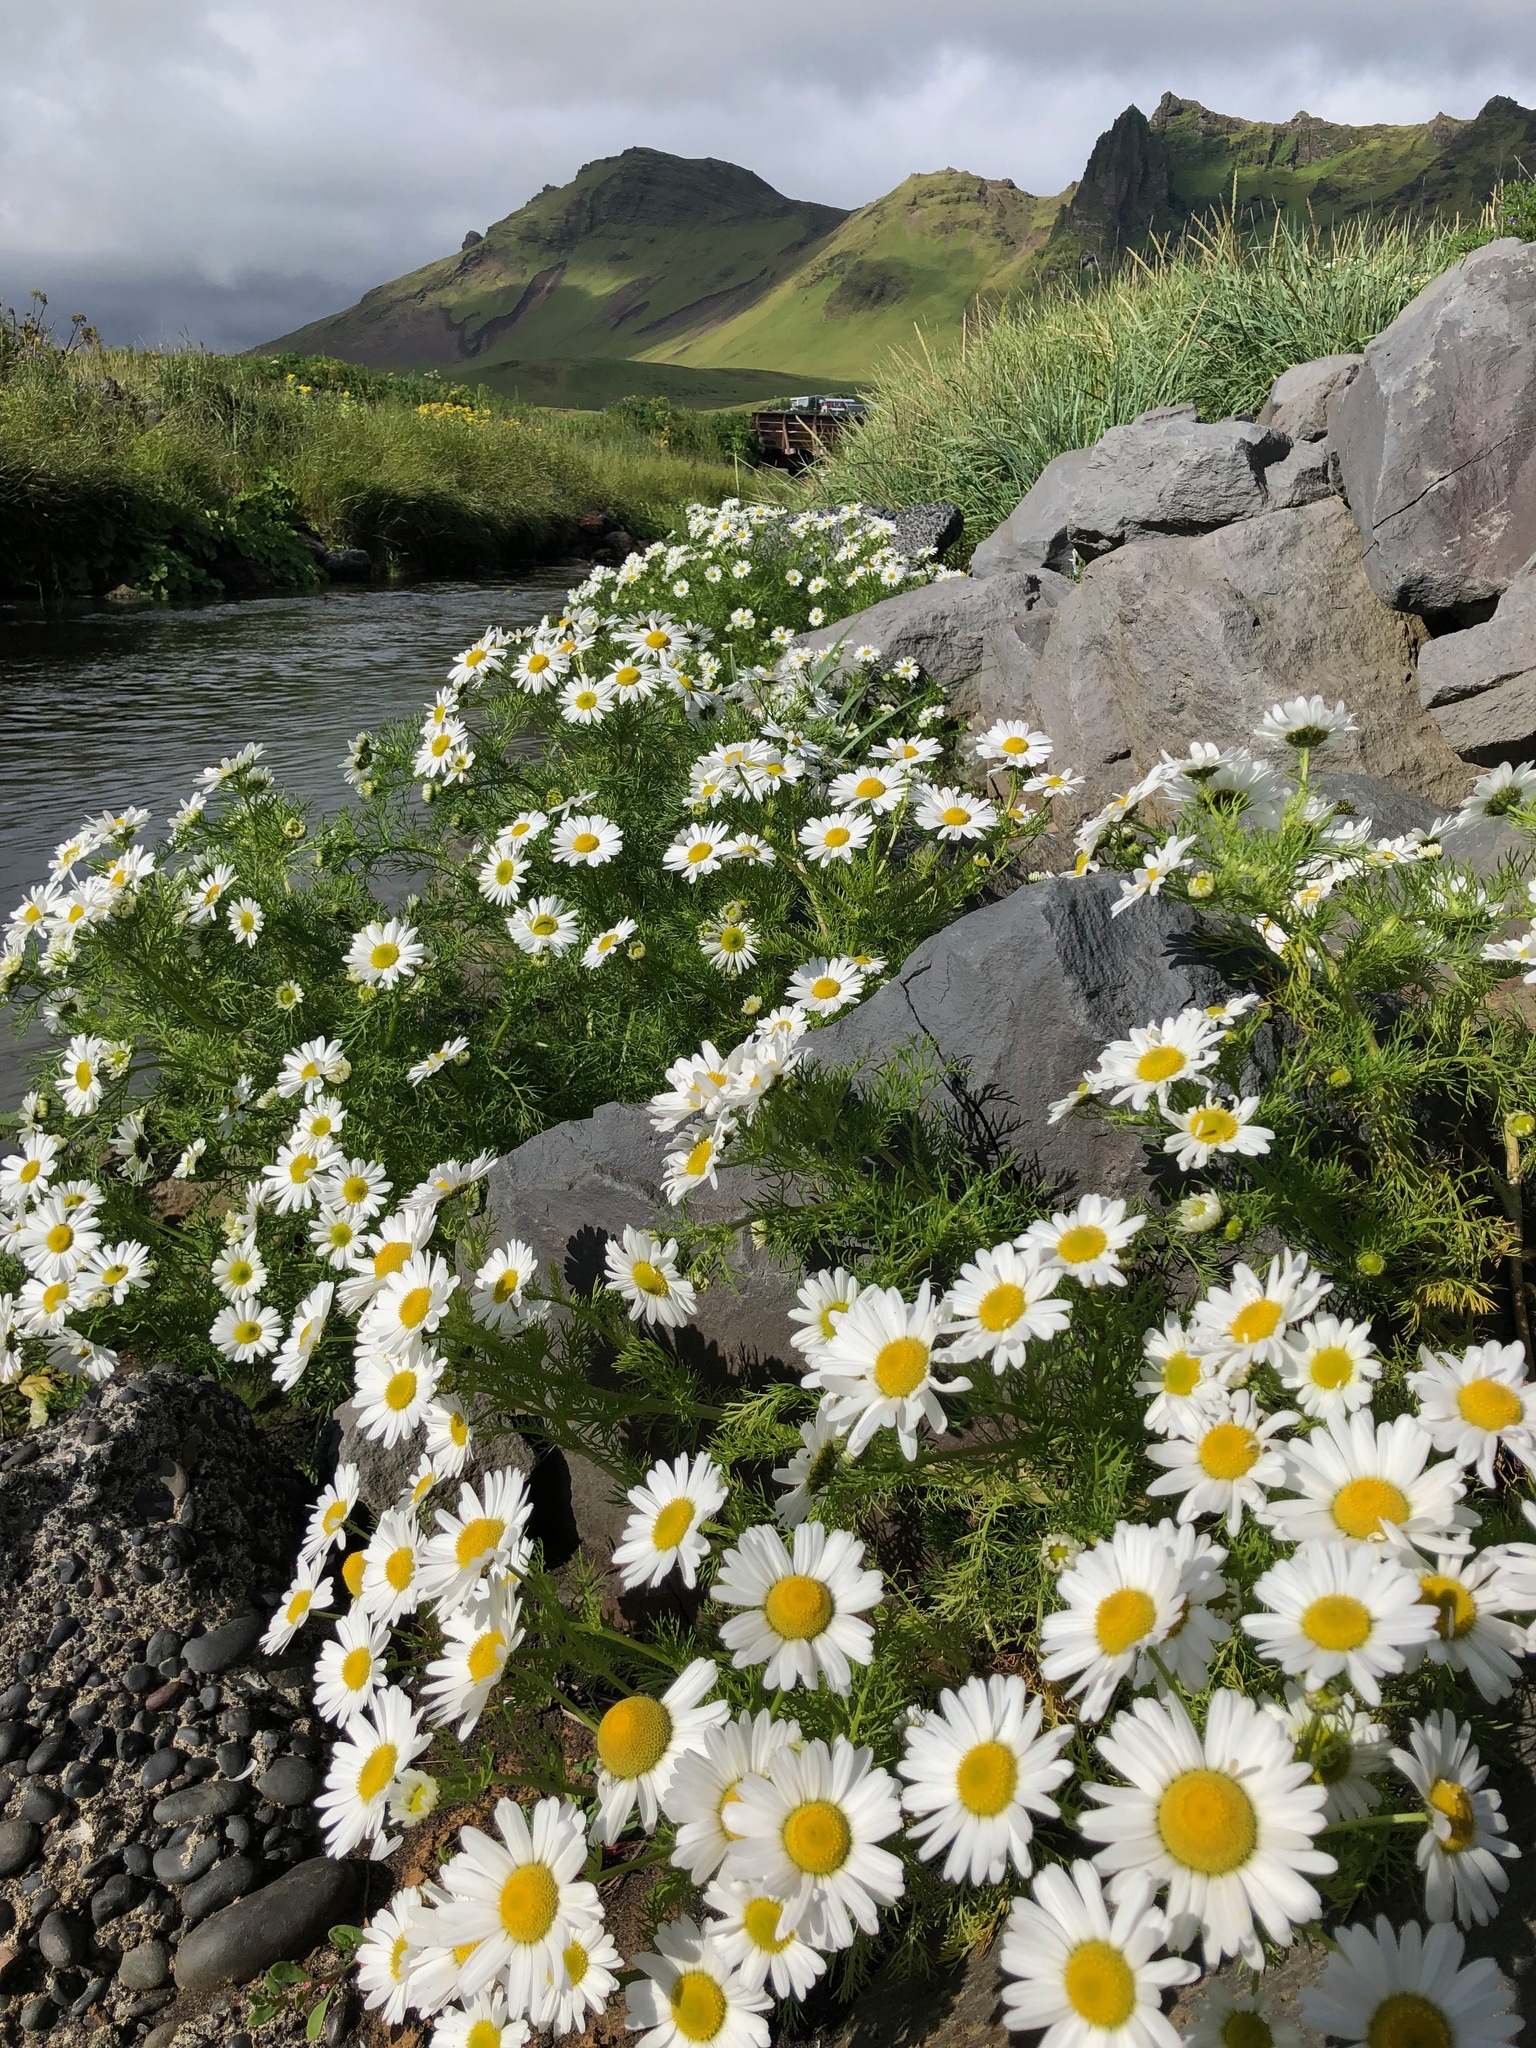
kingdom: Plantae
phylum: Tracheophyta
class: Magnoliopsida
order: Asterales
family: Asteraceae
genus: Tripleurospermum
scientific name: Tripleurospermum maritimum
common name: Sea mayweed
